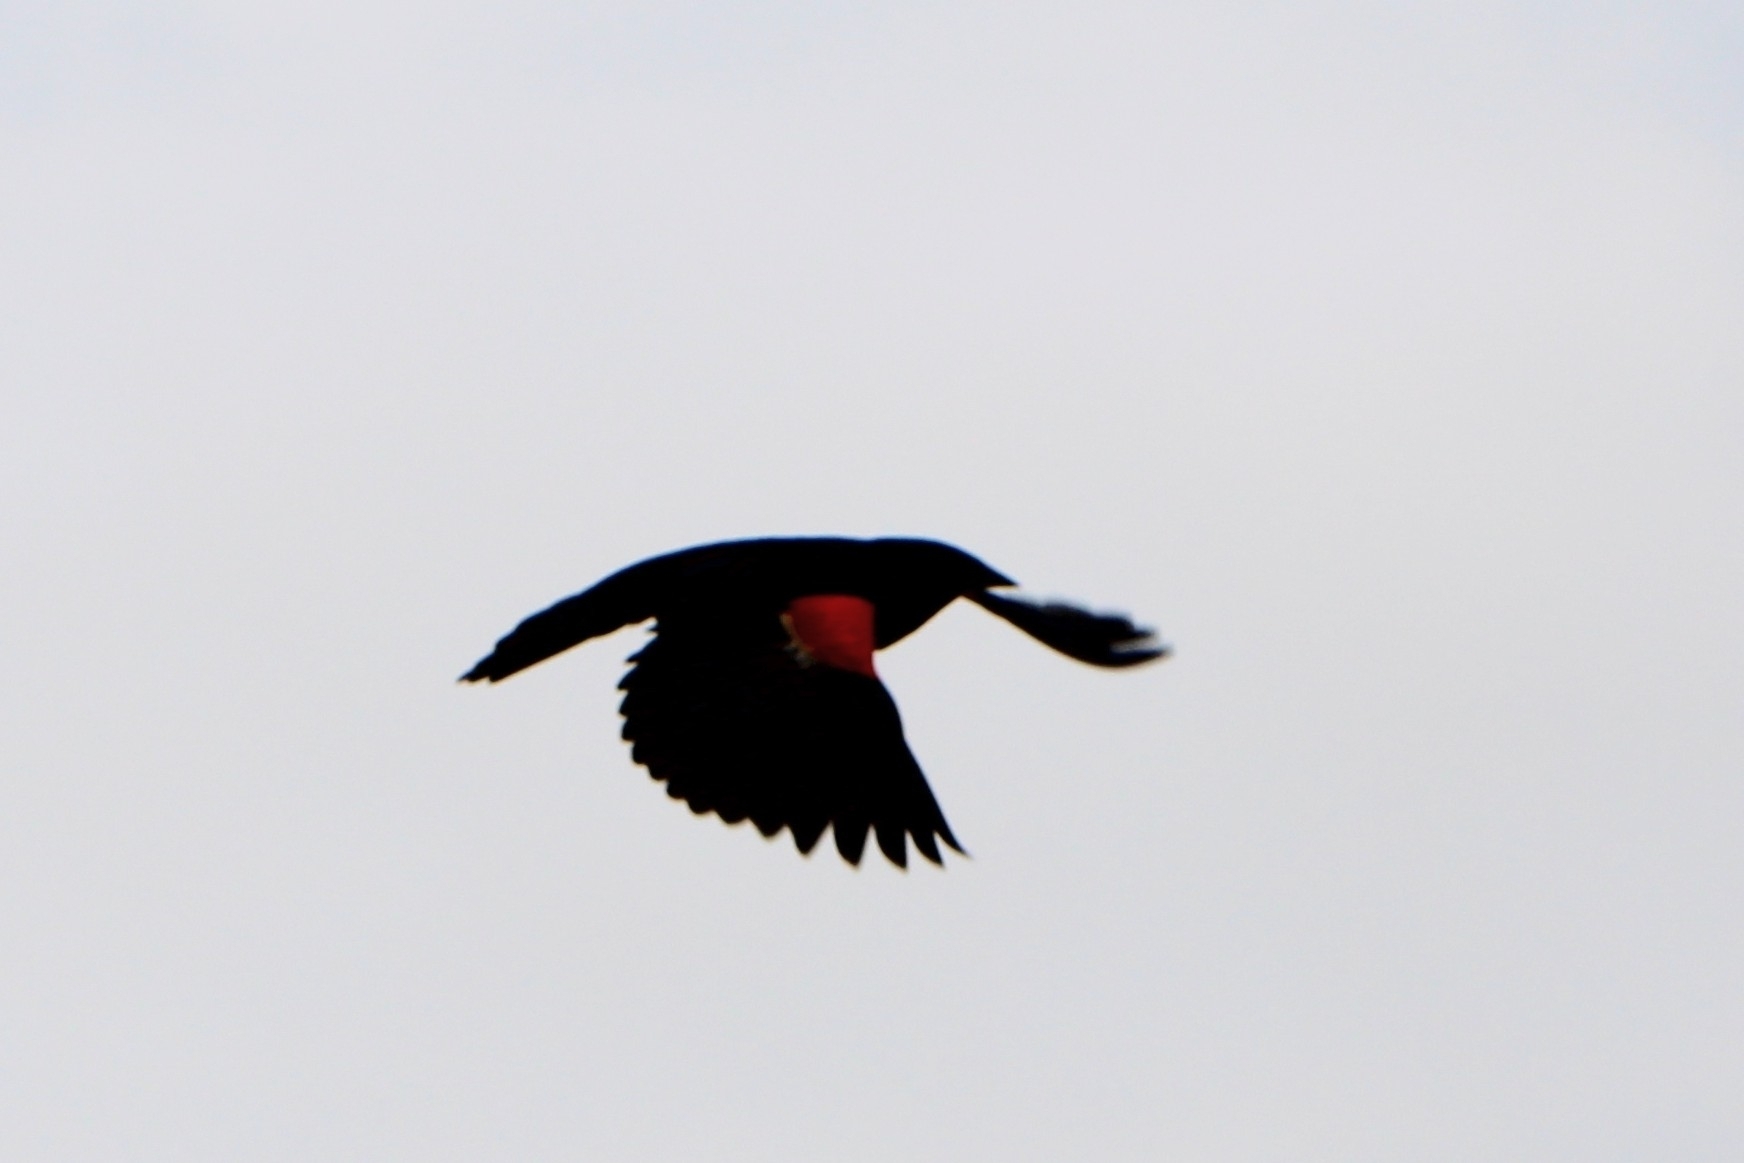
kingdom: Animalia
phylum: Chordata
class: Aves
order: Passeriformes
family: Icteridae
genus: Agelaius
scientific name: Agelaius phoeniceus
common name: Red-winged blackbird
